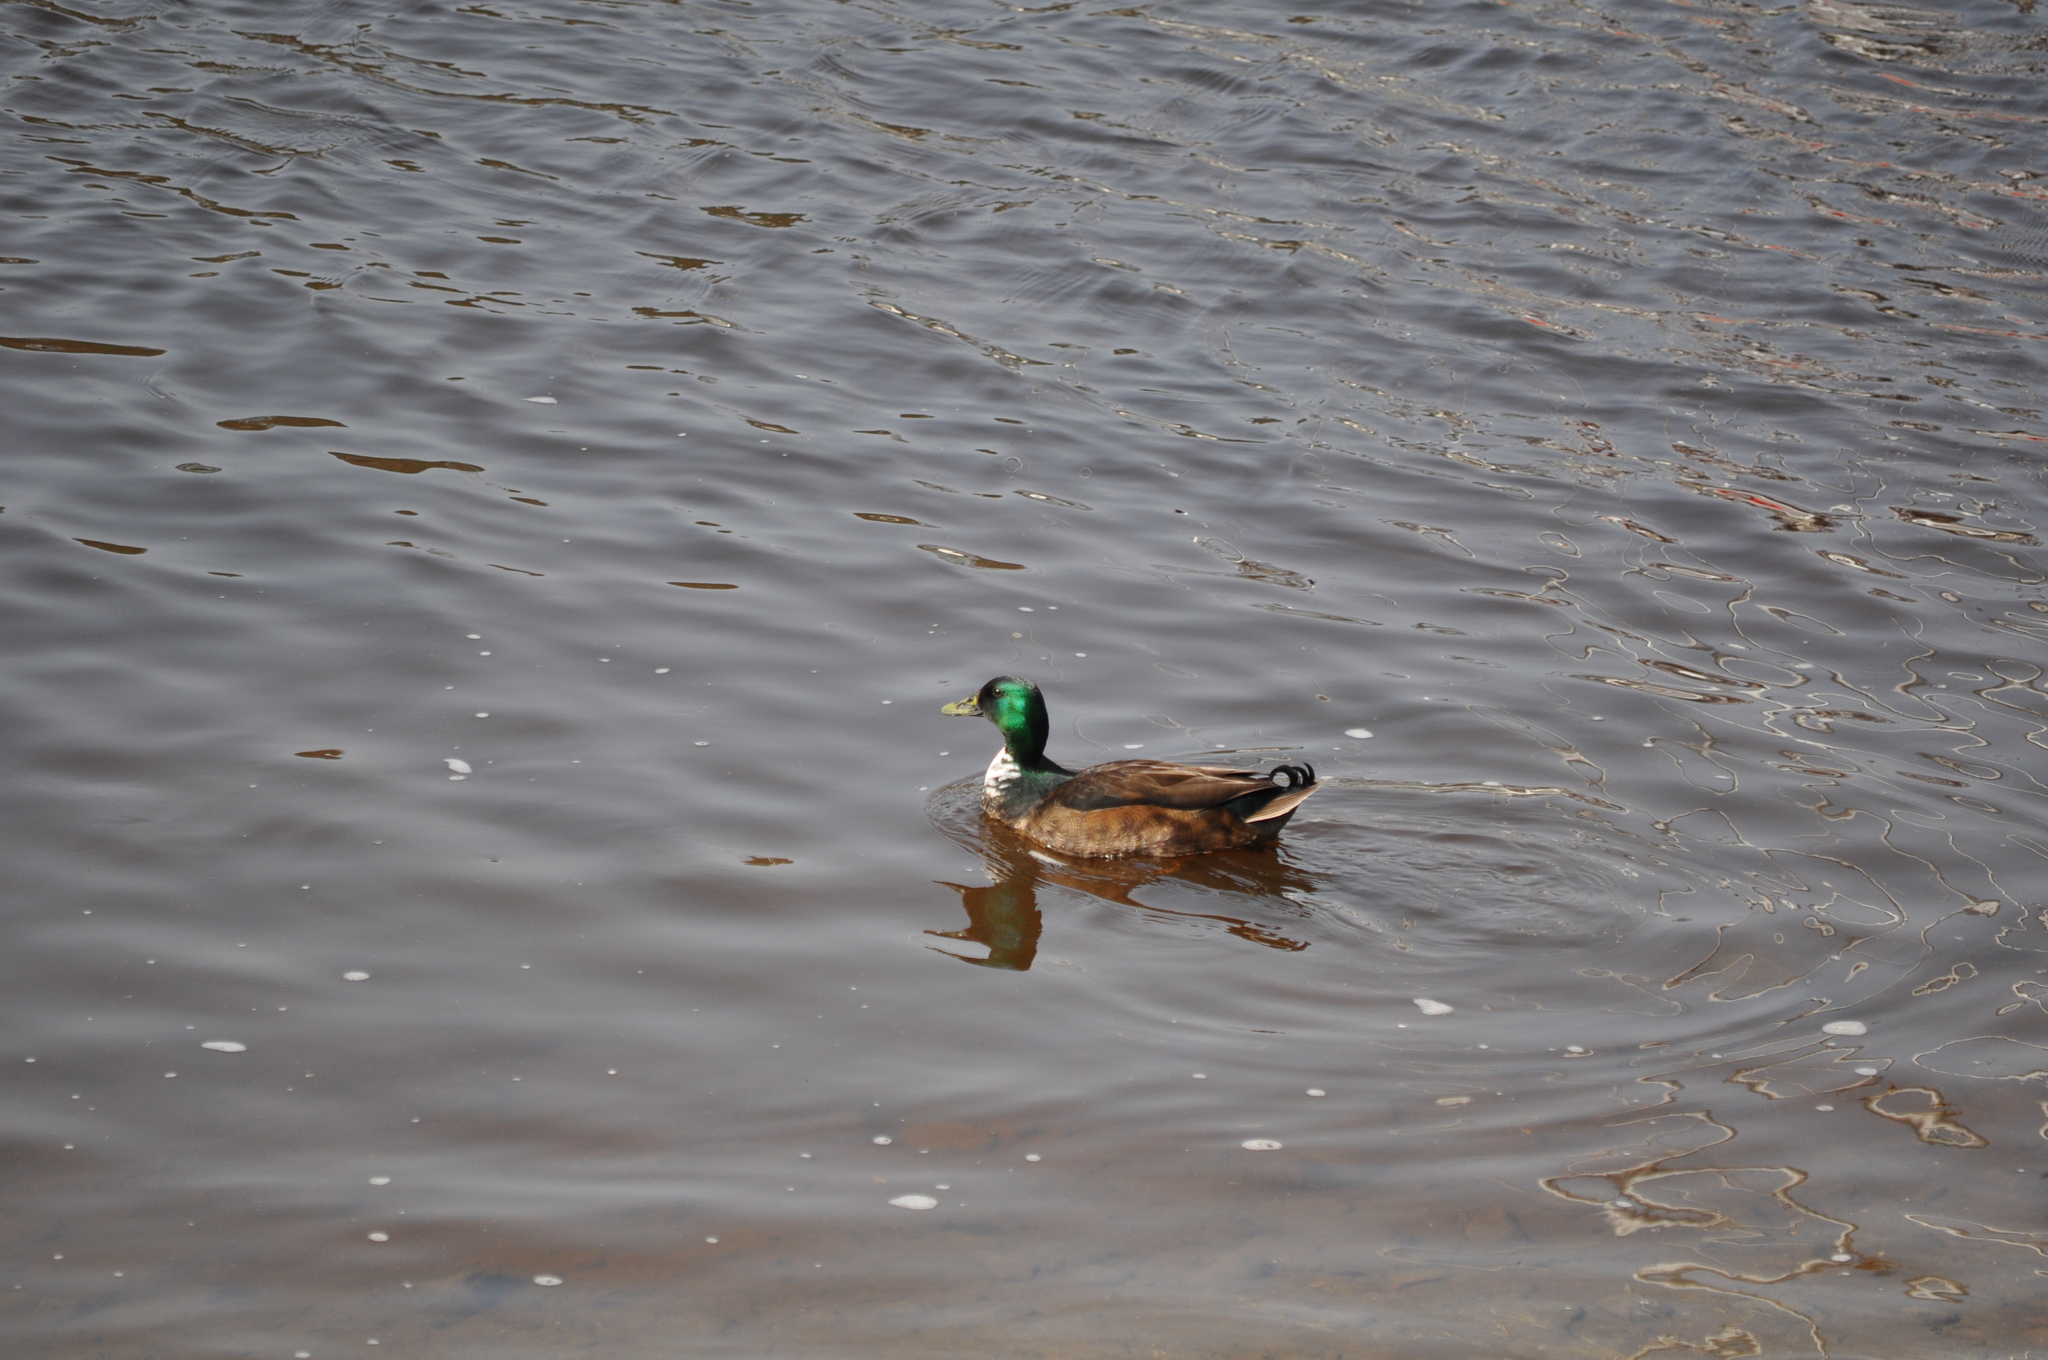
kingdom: Animalia
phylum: Chordata
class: Aves
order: Anseriformes
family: Anatidae
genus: Anas
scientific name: Anas platyrhynchos
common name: Mallard
